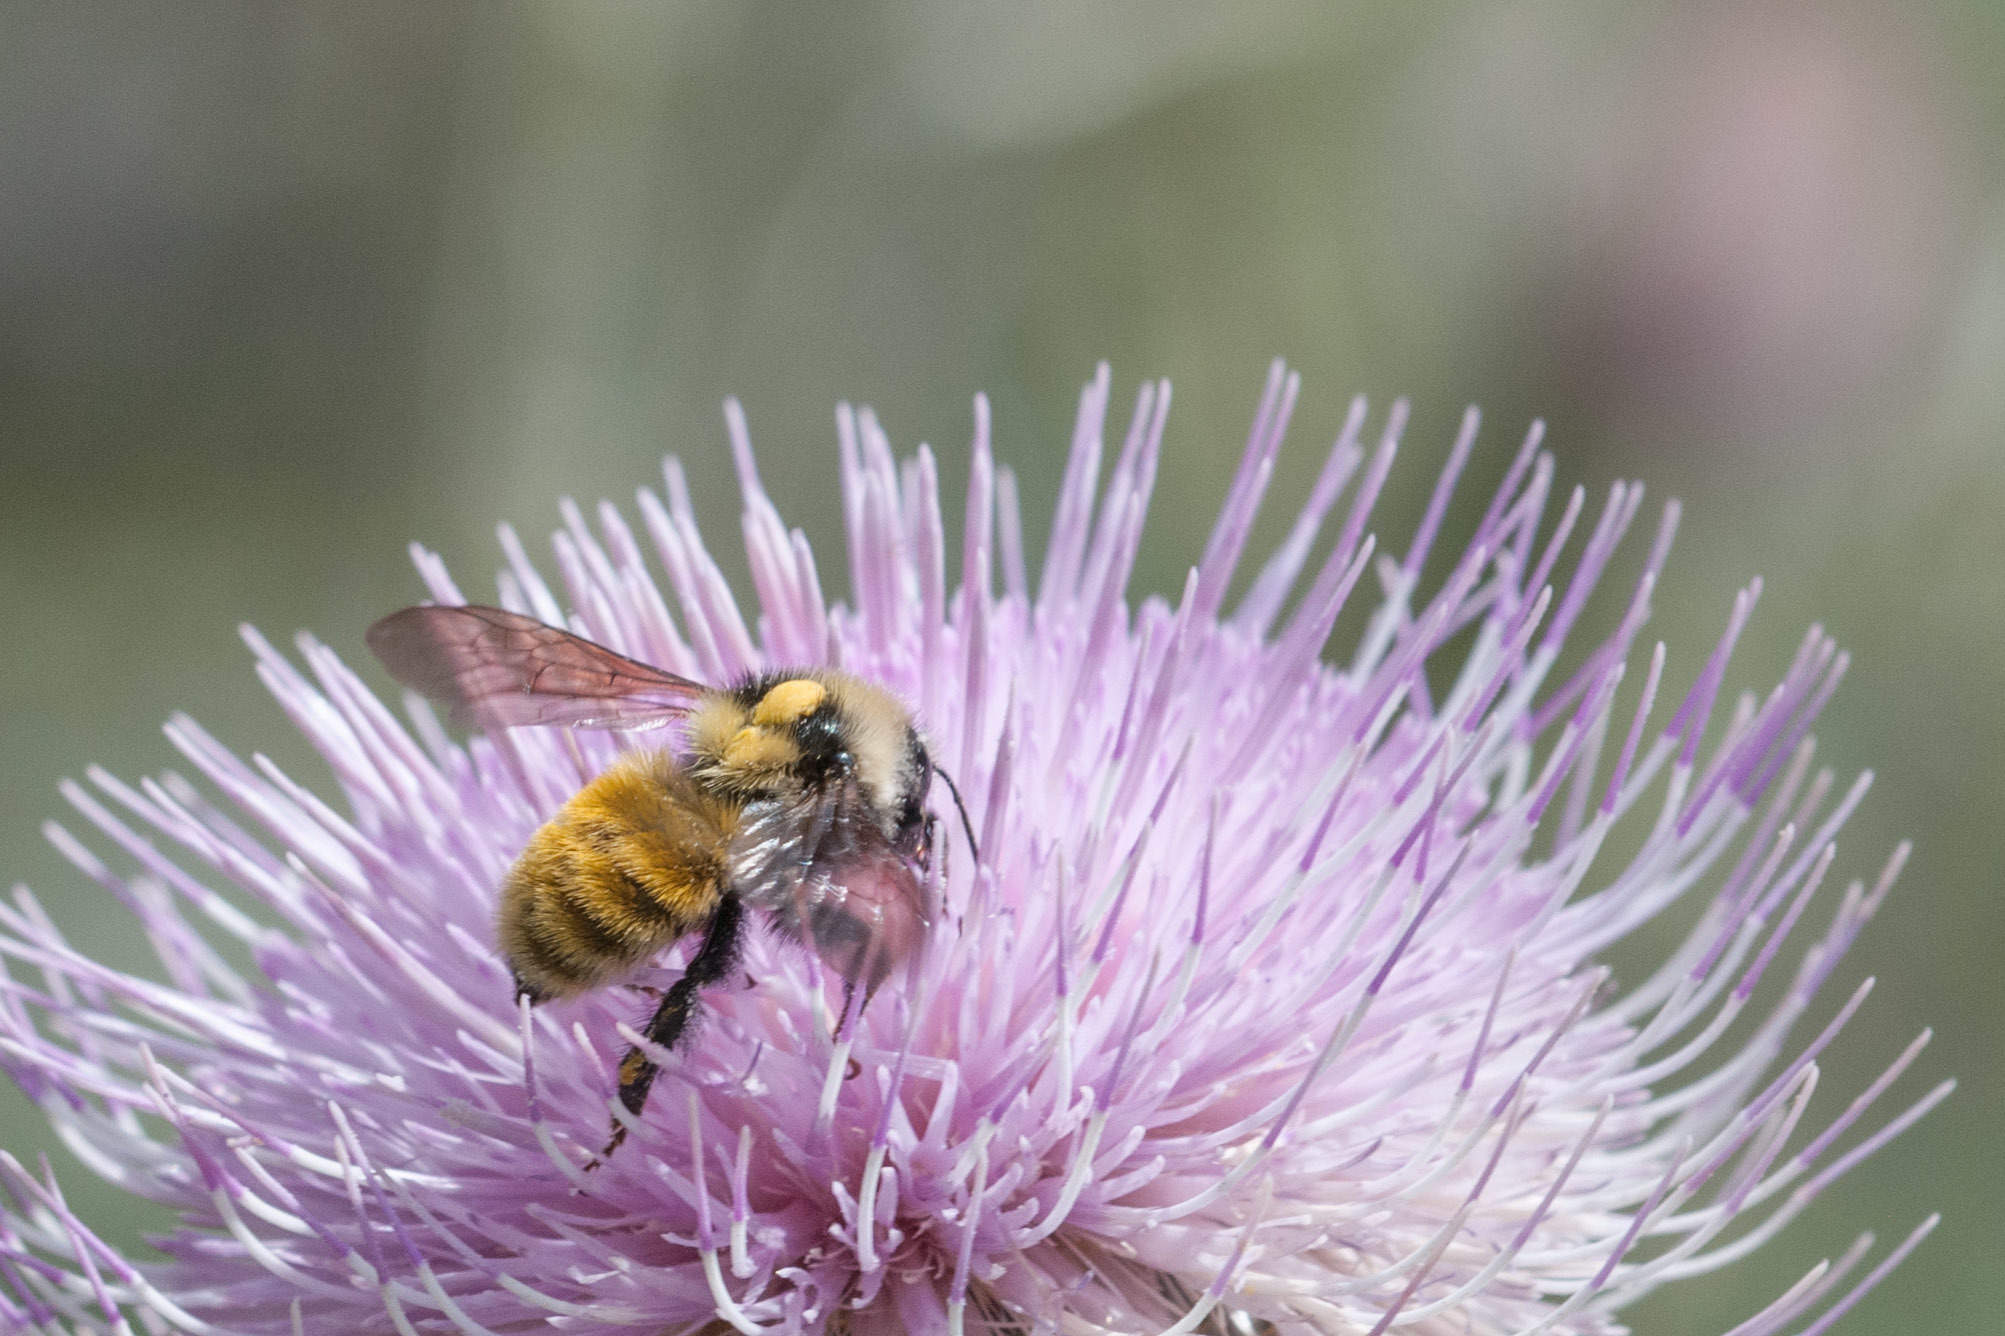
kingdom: Animalia
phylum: Arthropoda
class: Insecta
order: Hymenoptera
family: Apidae
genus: Bombus
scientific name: Bombus appositus
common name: White-shouldered bumble bee
